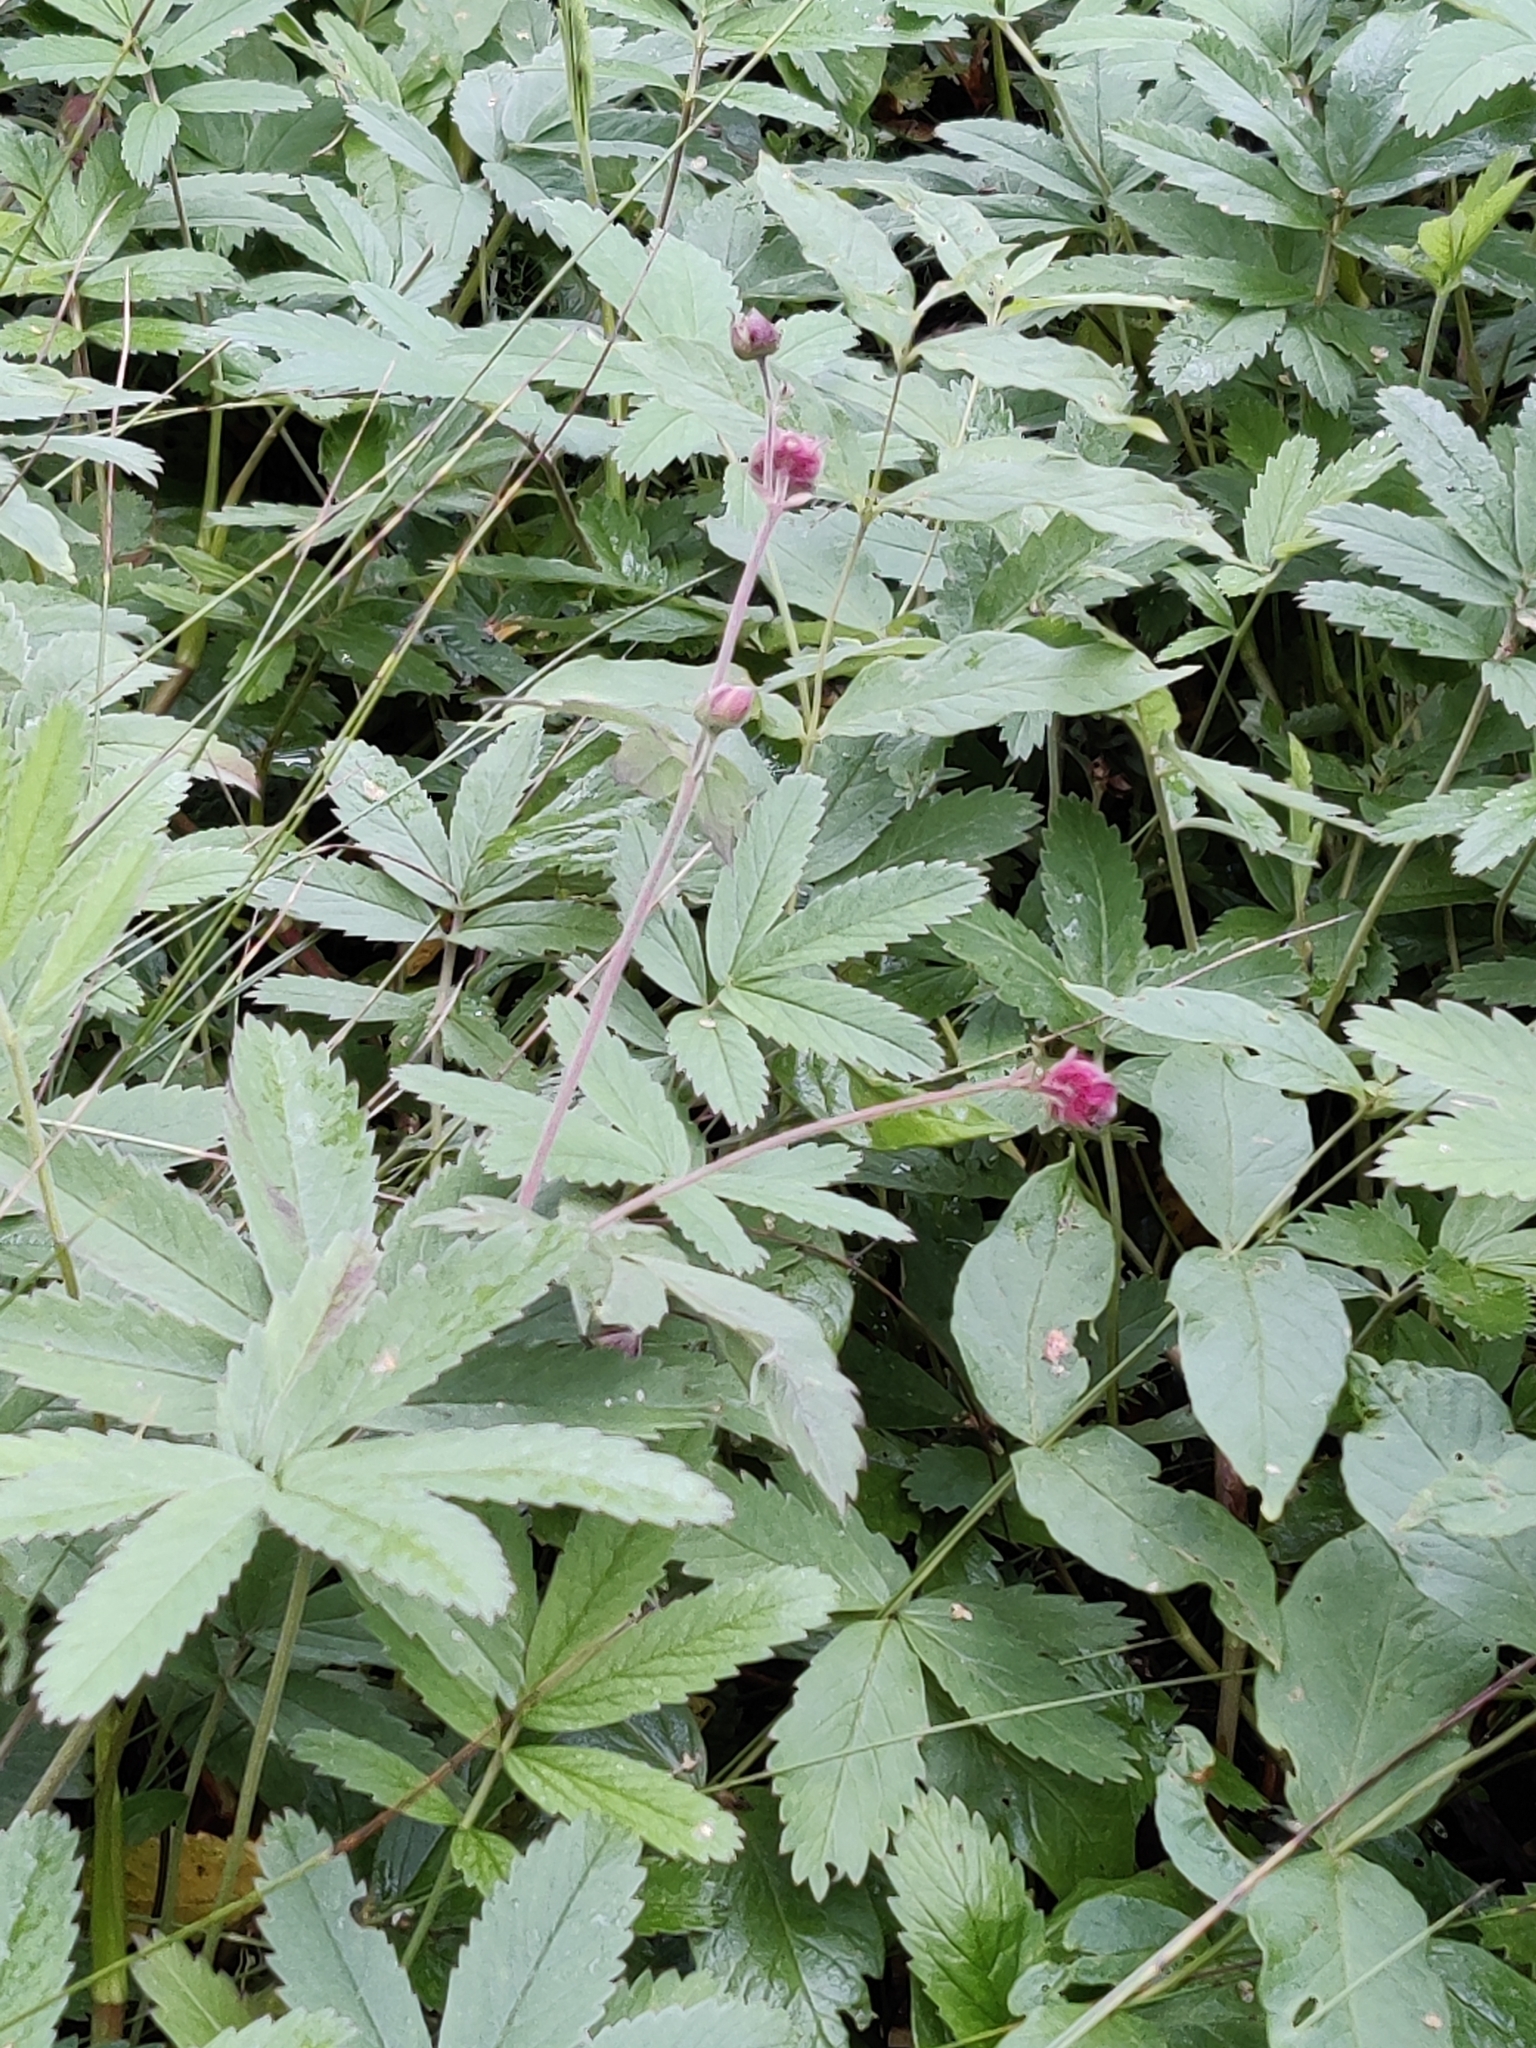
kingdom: Plantae
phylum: Tracheophyta
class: Magnoliopsida
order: Rosales
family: Rosaceae
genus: Comarum
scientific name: Comarum palustre
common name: Marsh cinquefoil
